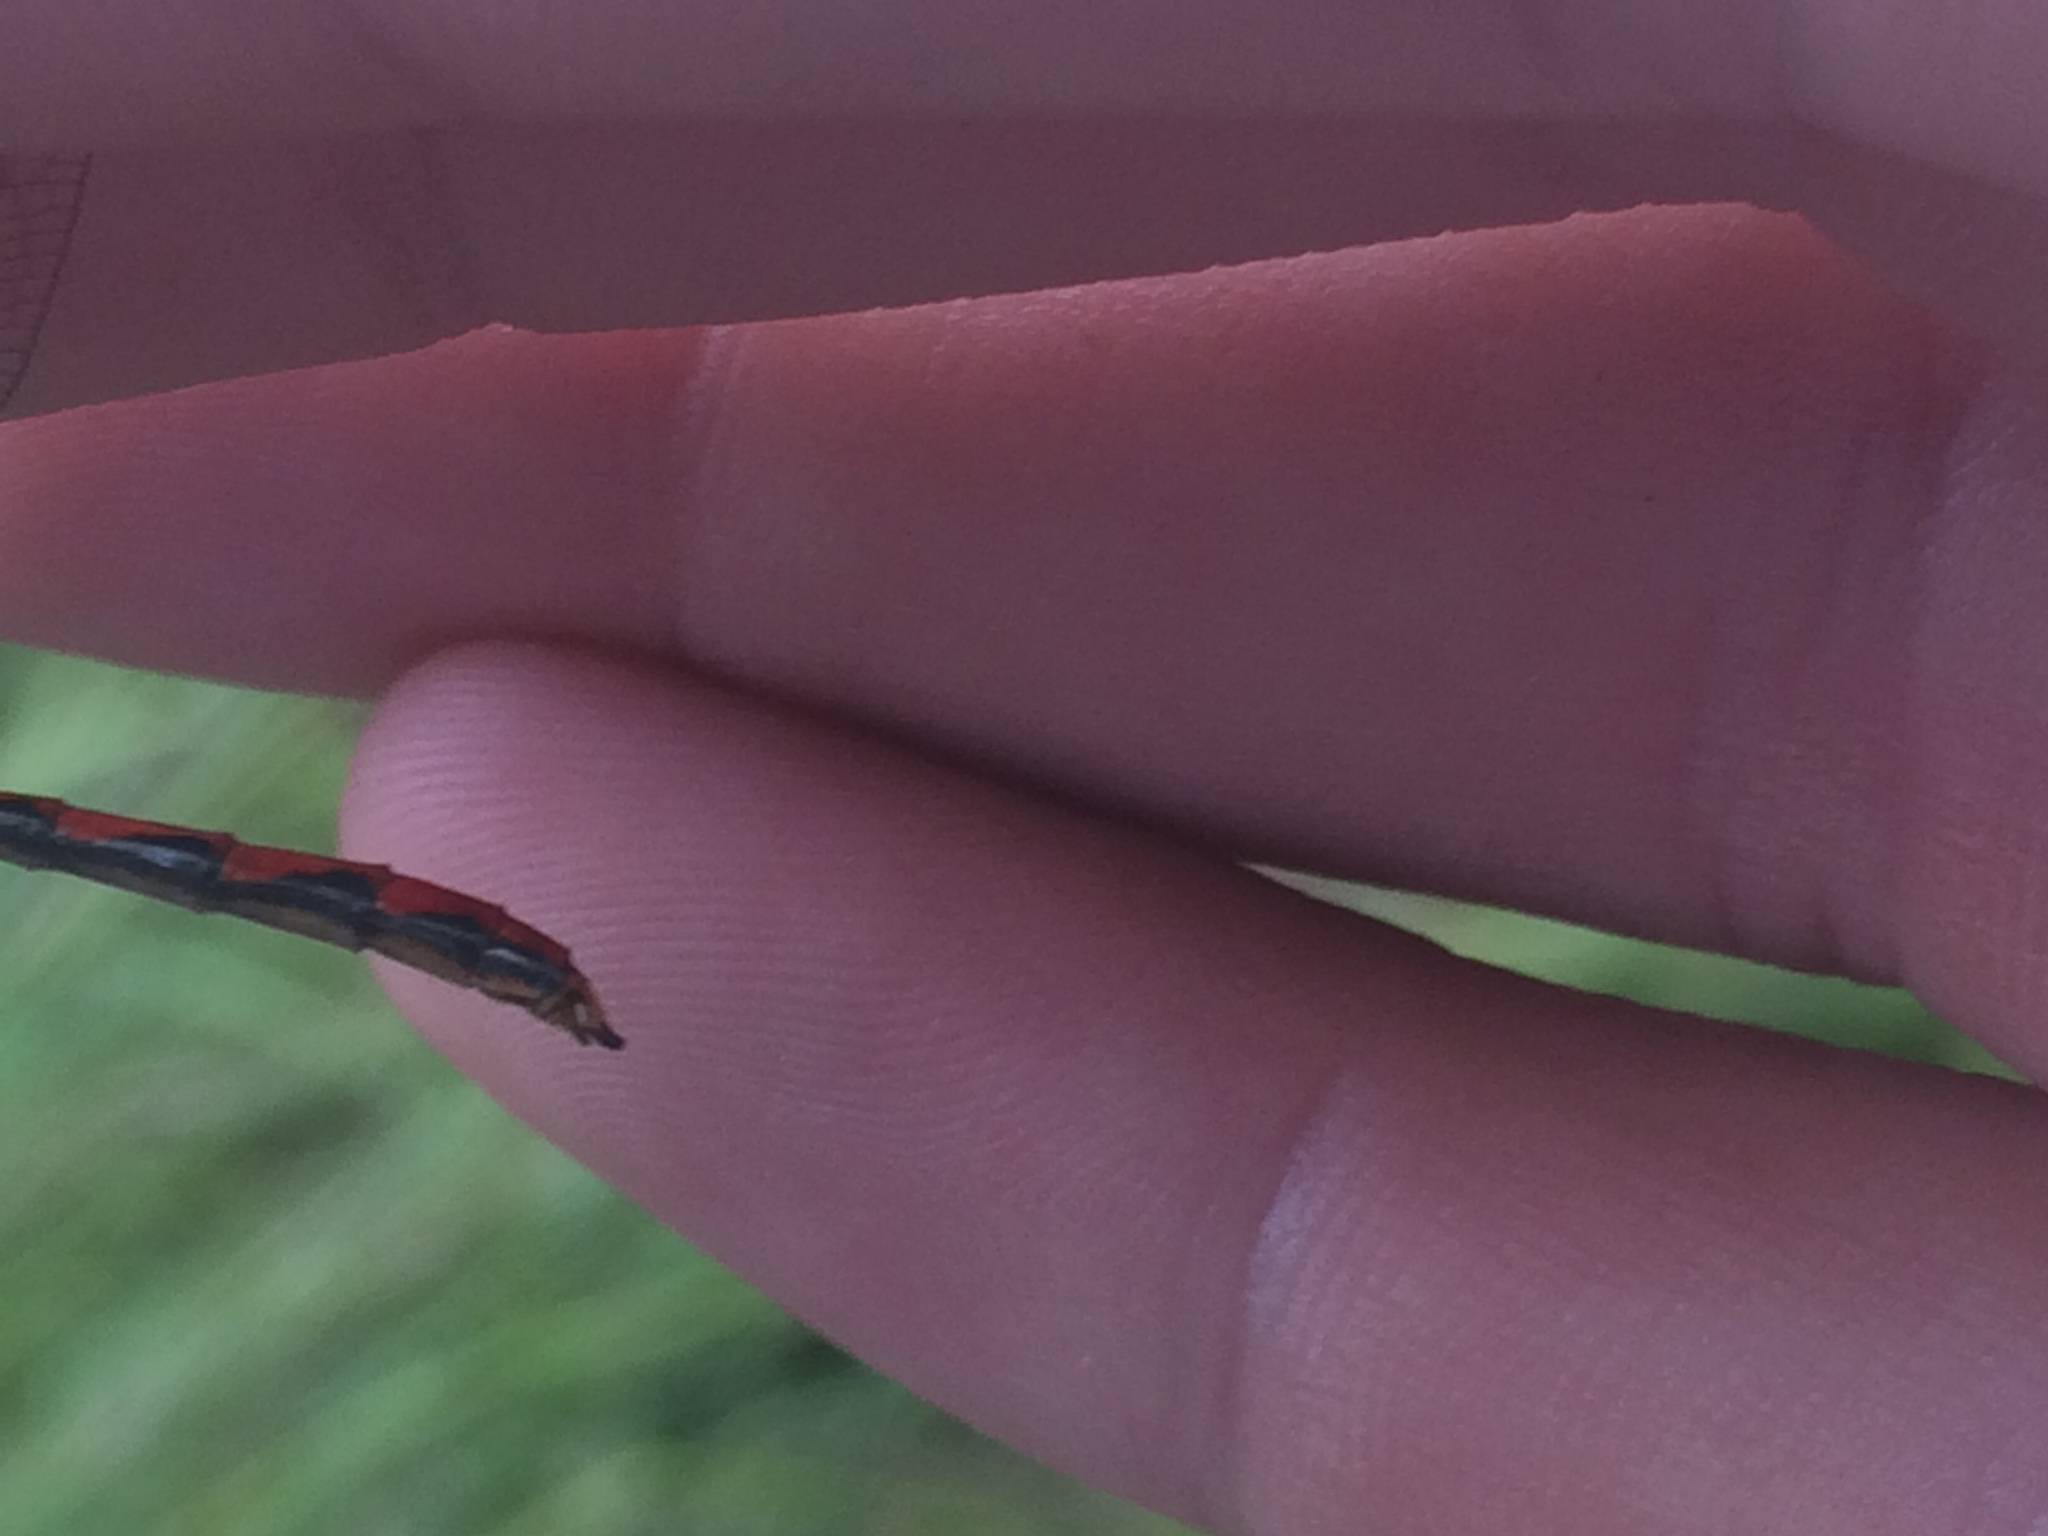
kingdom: Animalia
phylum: Arthropoda
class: Insecta
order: Odonata
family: Libellulidae
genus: Sympetrum
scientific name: Sympetrum obtrusum
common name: White-faced meadowhawk
